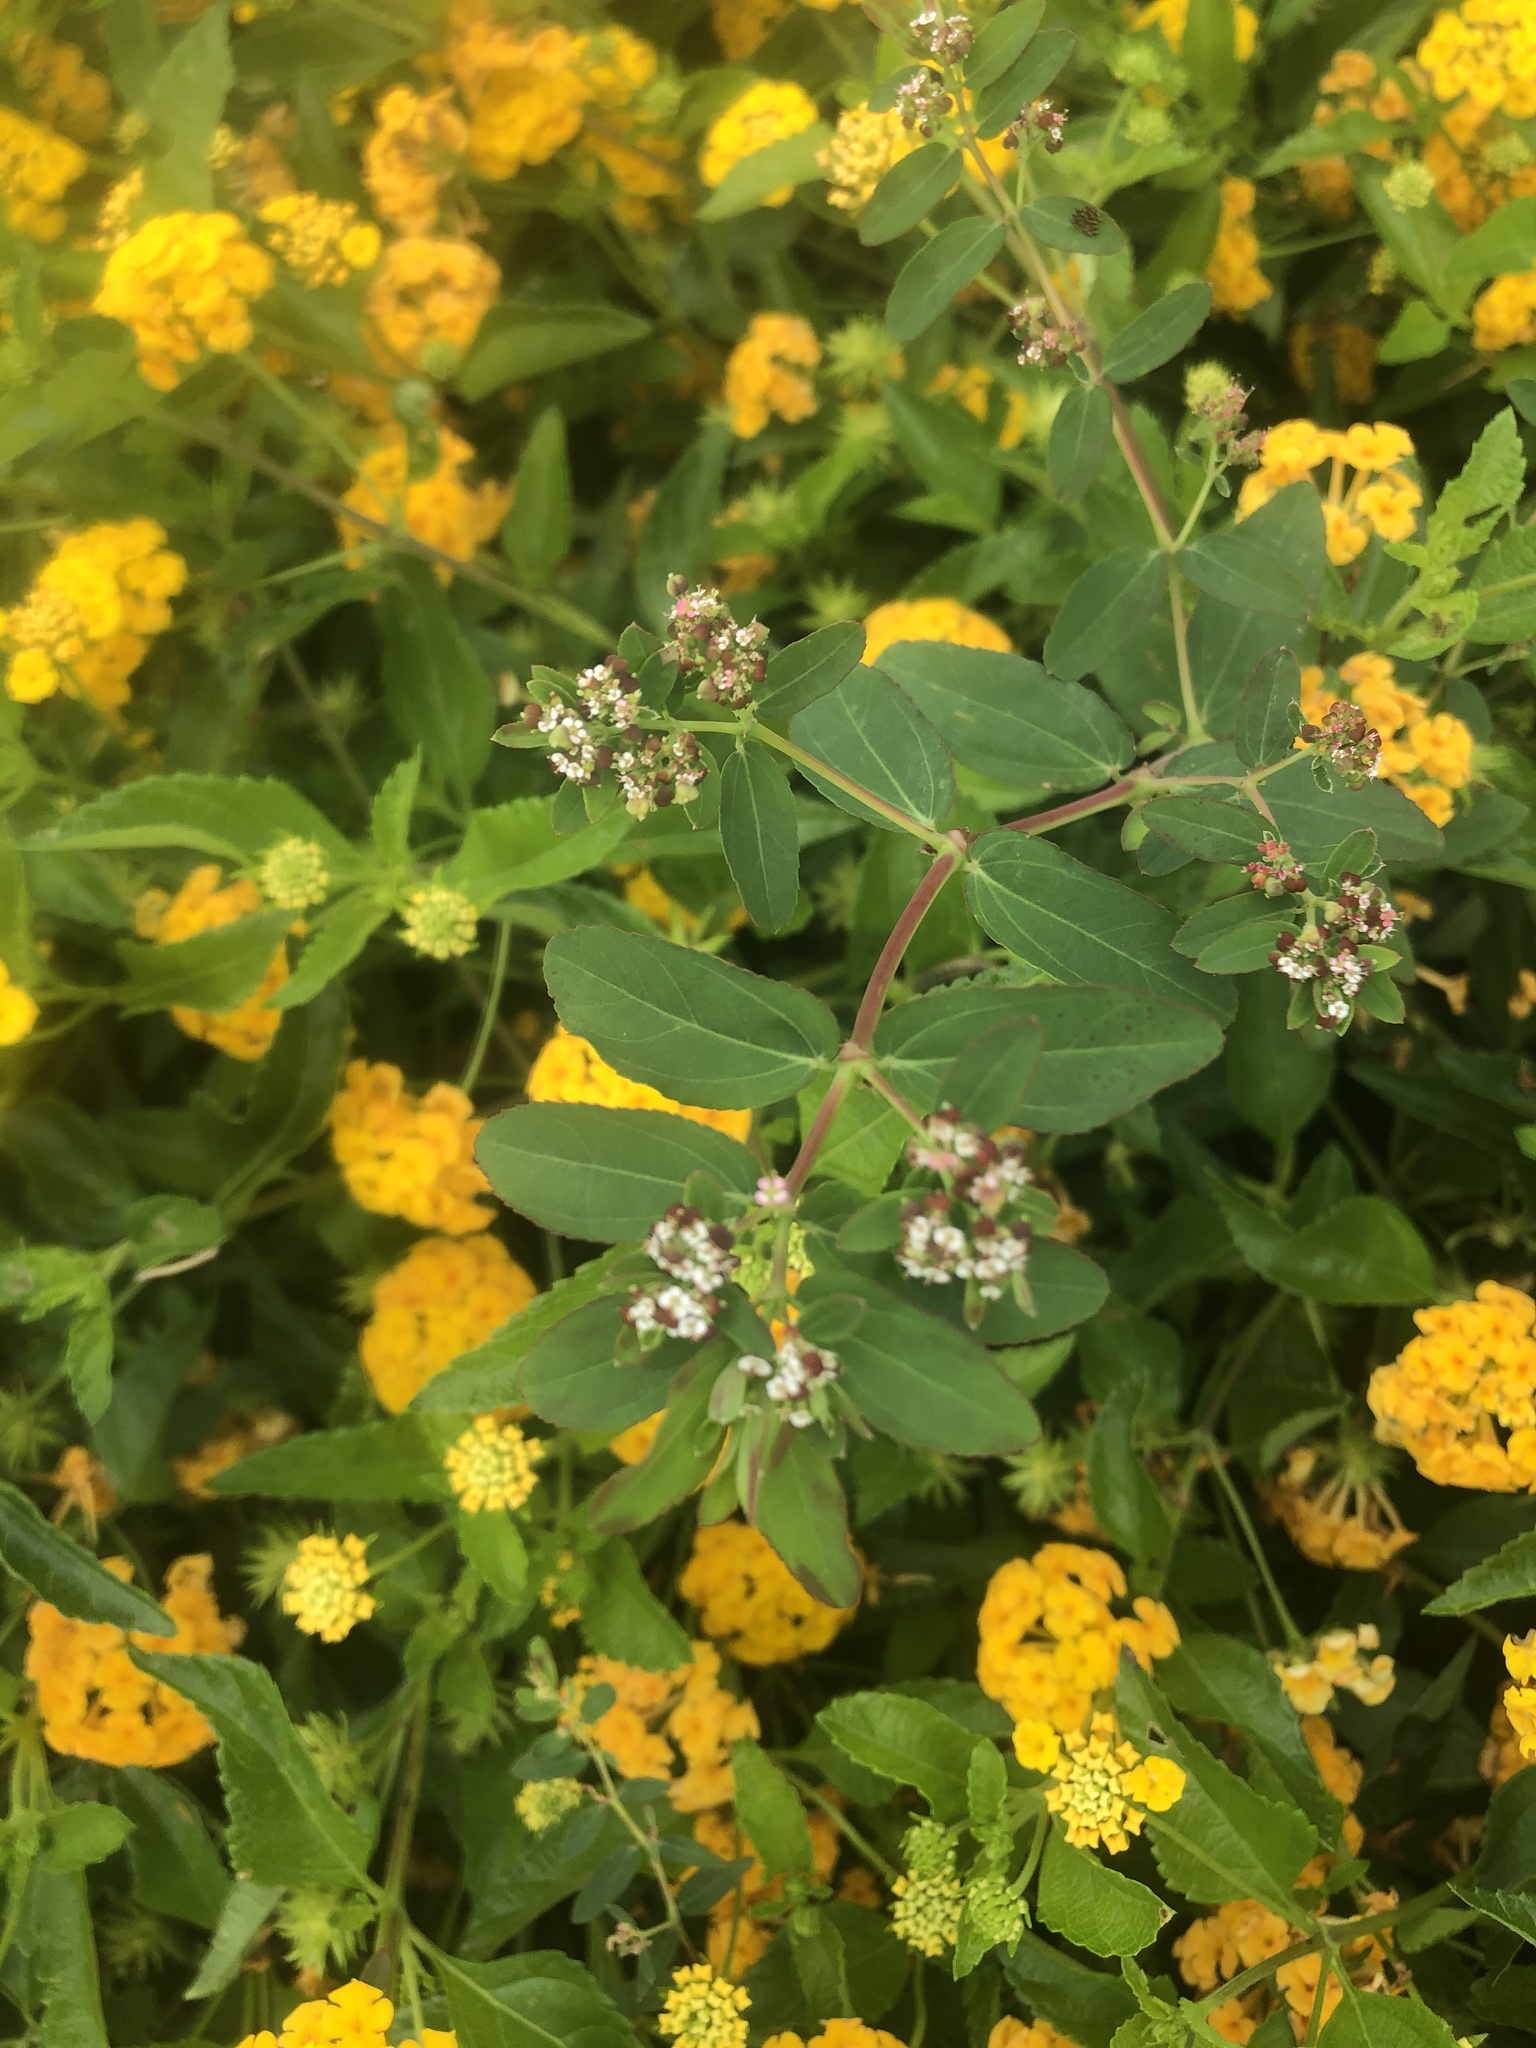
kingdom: Plantae
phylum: Tracheophyta
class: Magnoliopsida
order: Malpighiales
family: Euphorbiaceae
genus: Euphorbia
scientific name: Euphorbia hypericifolia
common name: Graceful sandmat
